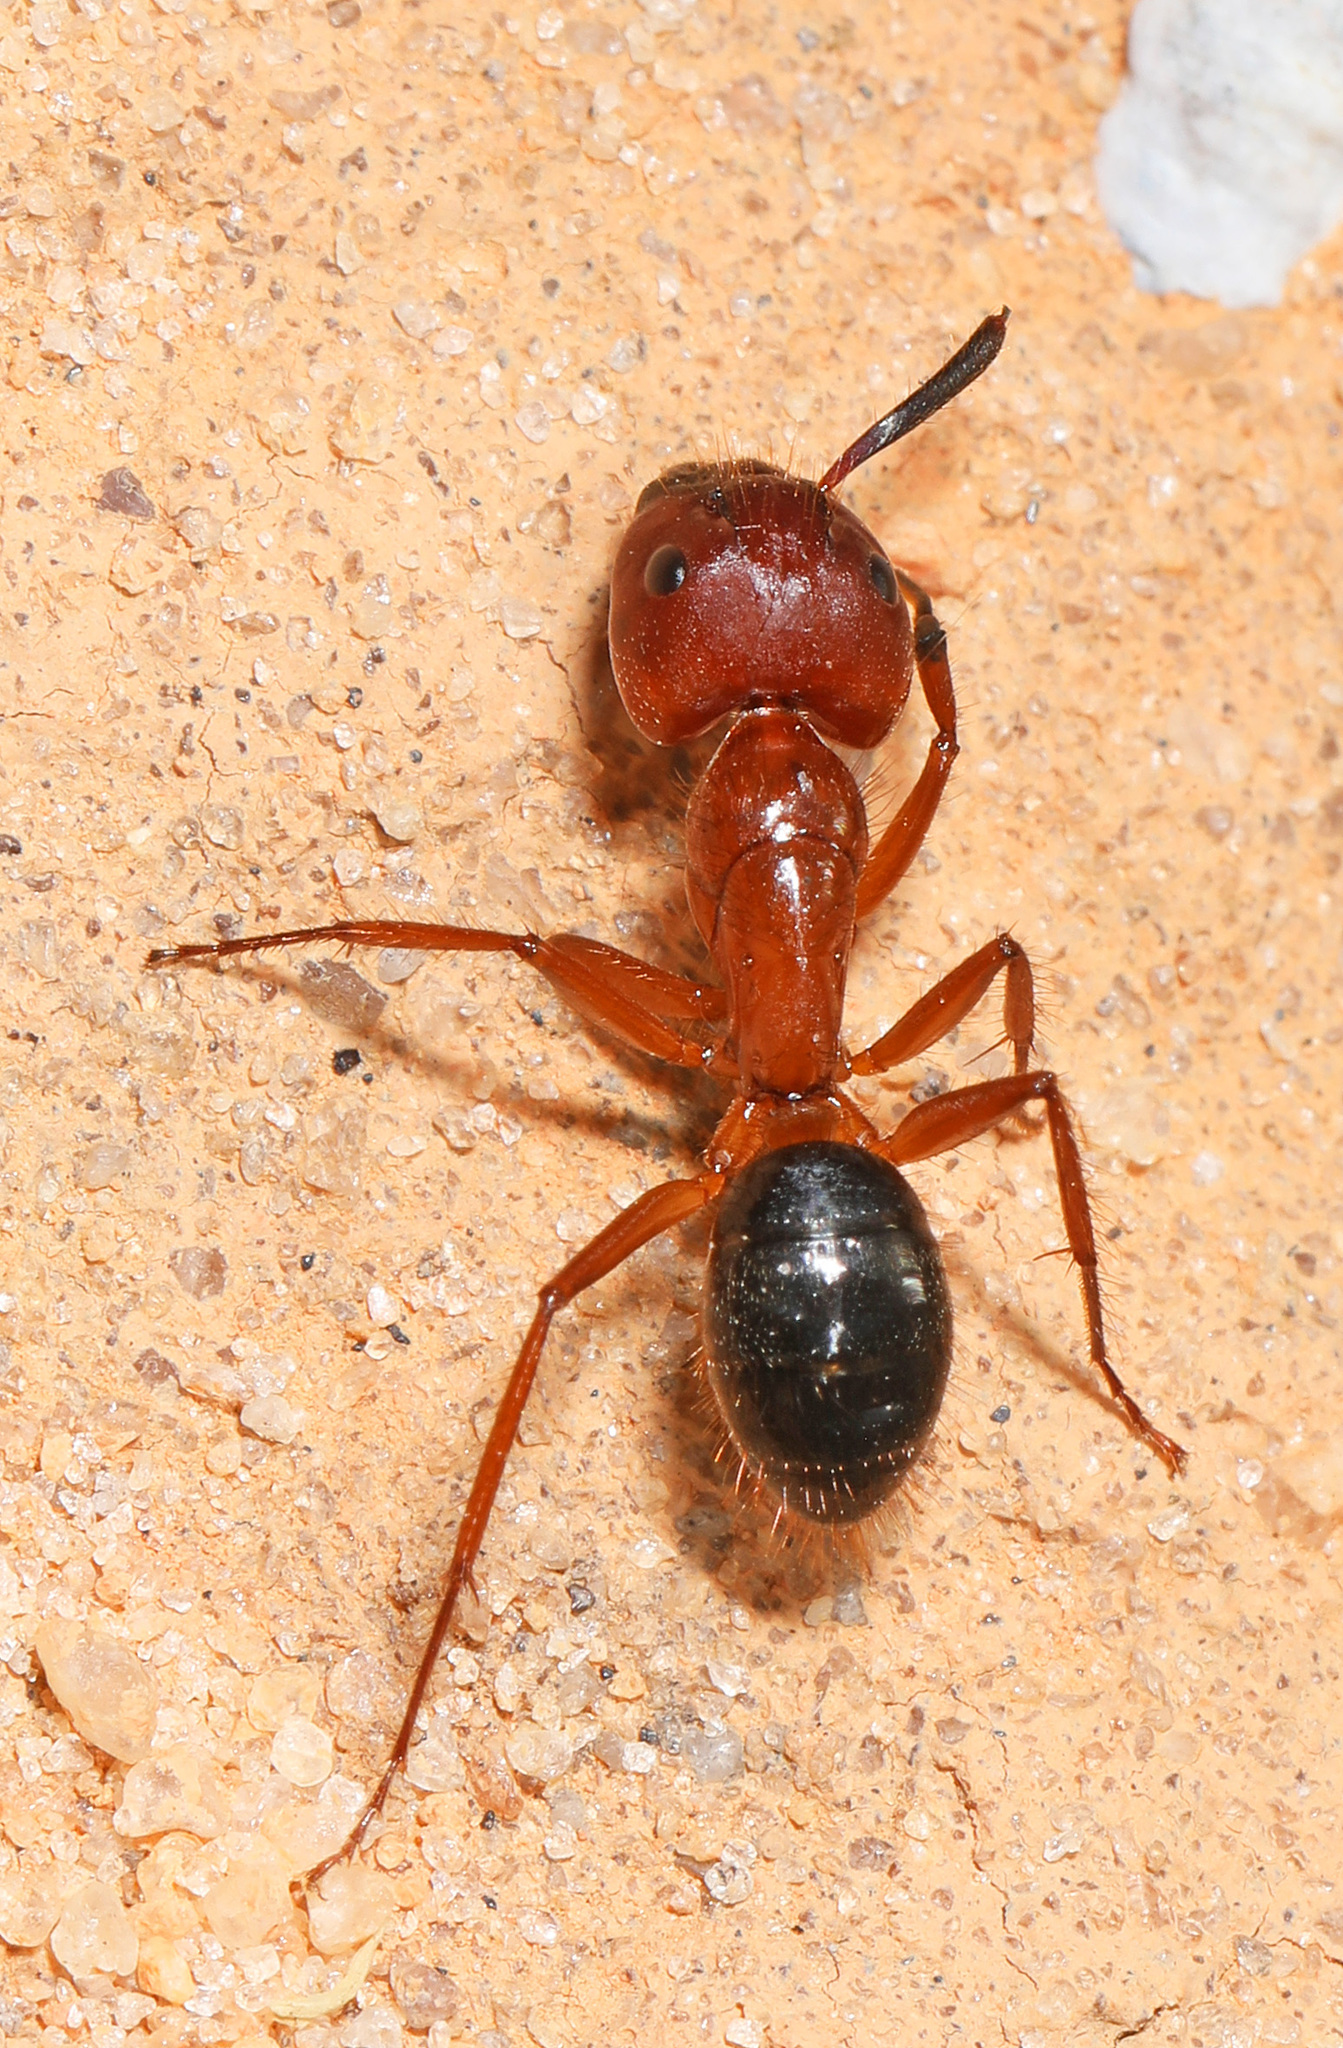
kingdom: Animalia
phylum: Arthropoda
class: Insecta
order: Hymenoptera
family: Formicidae
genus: Camponotus
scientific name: Camponotus floridanus
